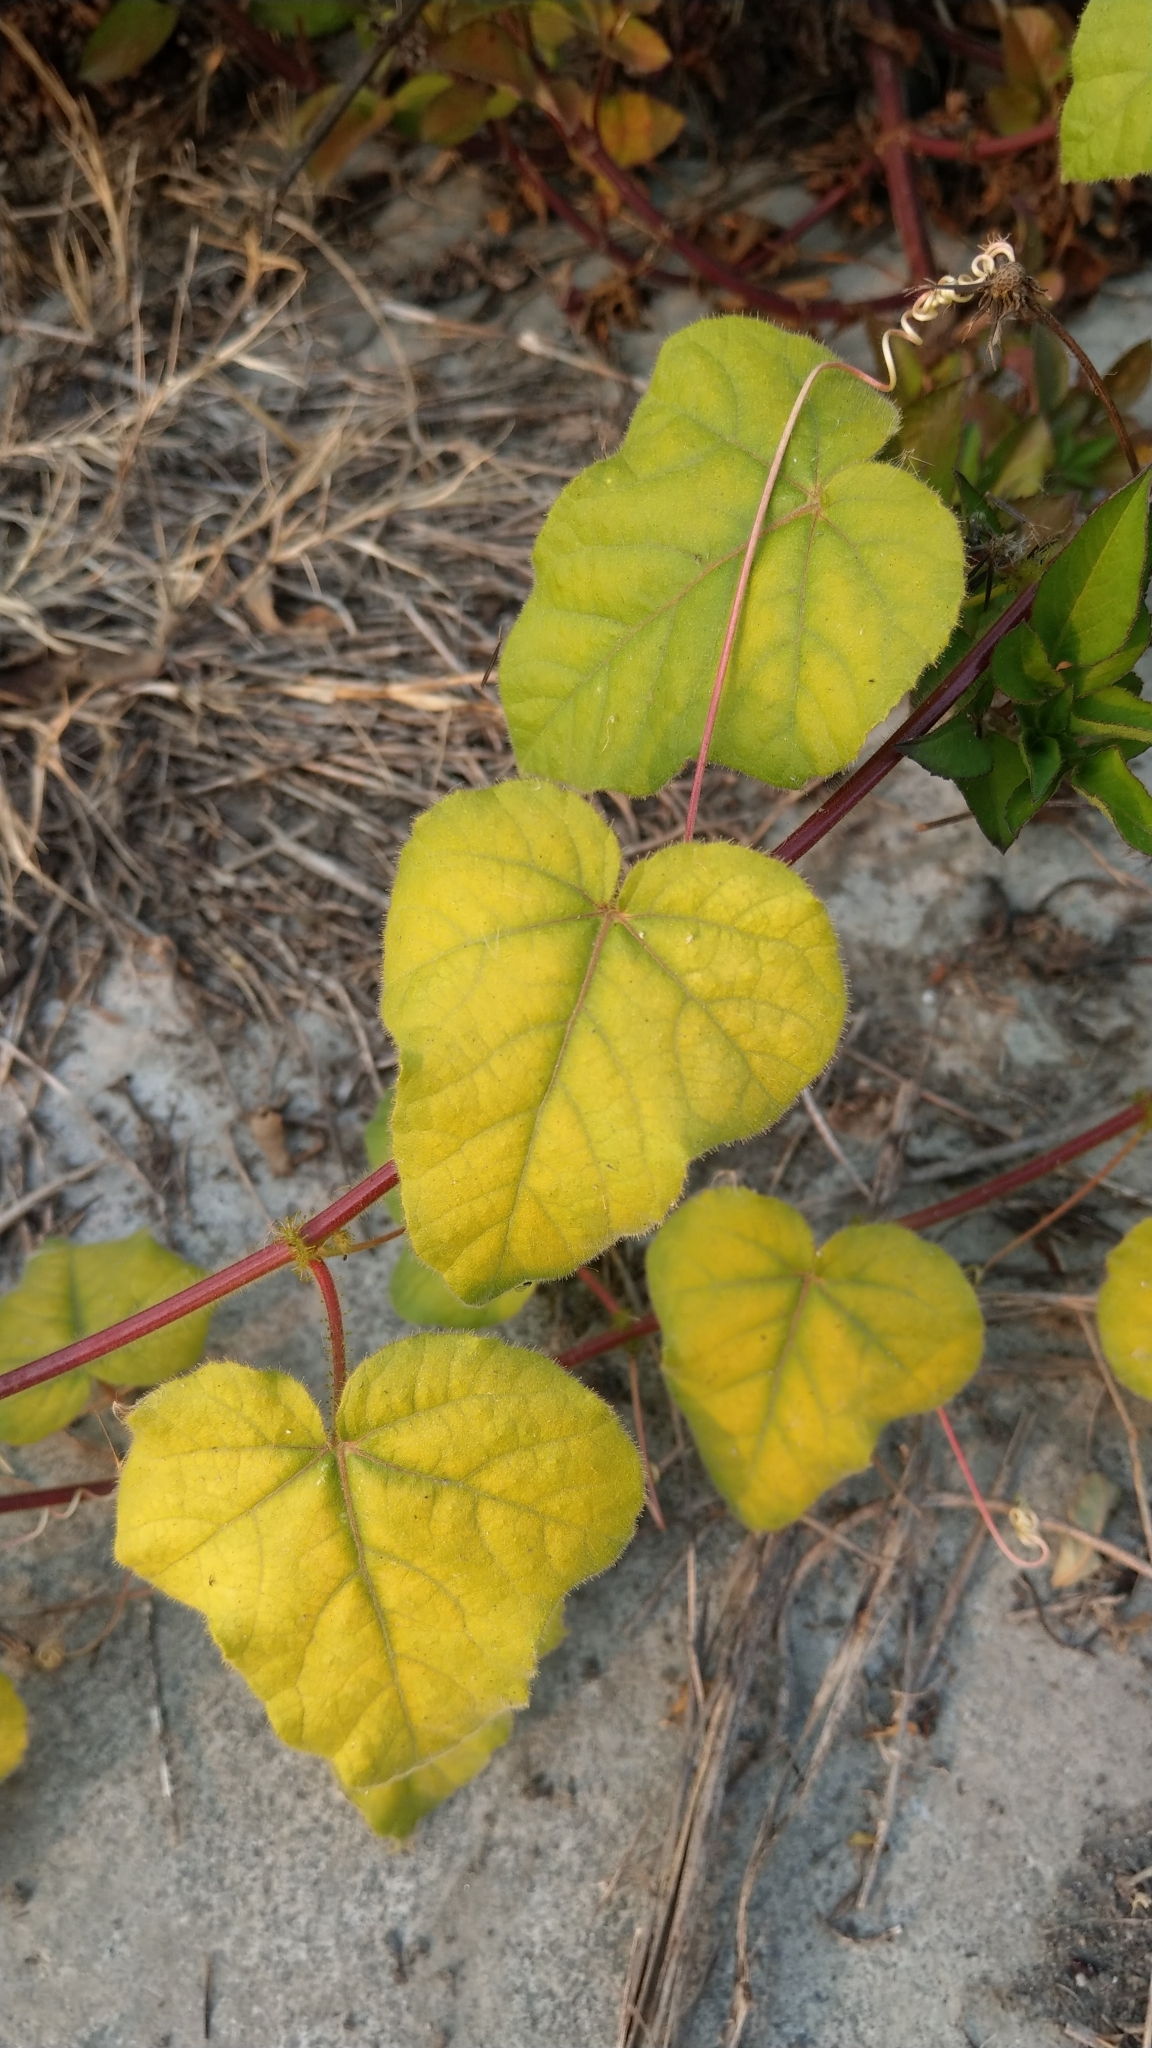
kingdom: Plantae
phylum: Tracheophyta
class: Magnoliopsida
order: Malpighiales
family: Passifloraceae
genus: Passiflora
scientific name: Passiflora vesicaria
